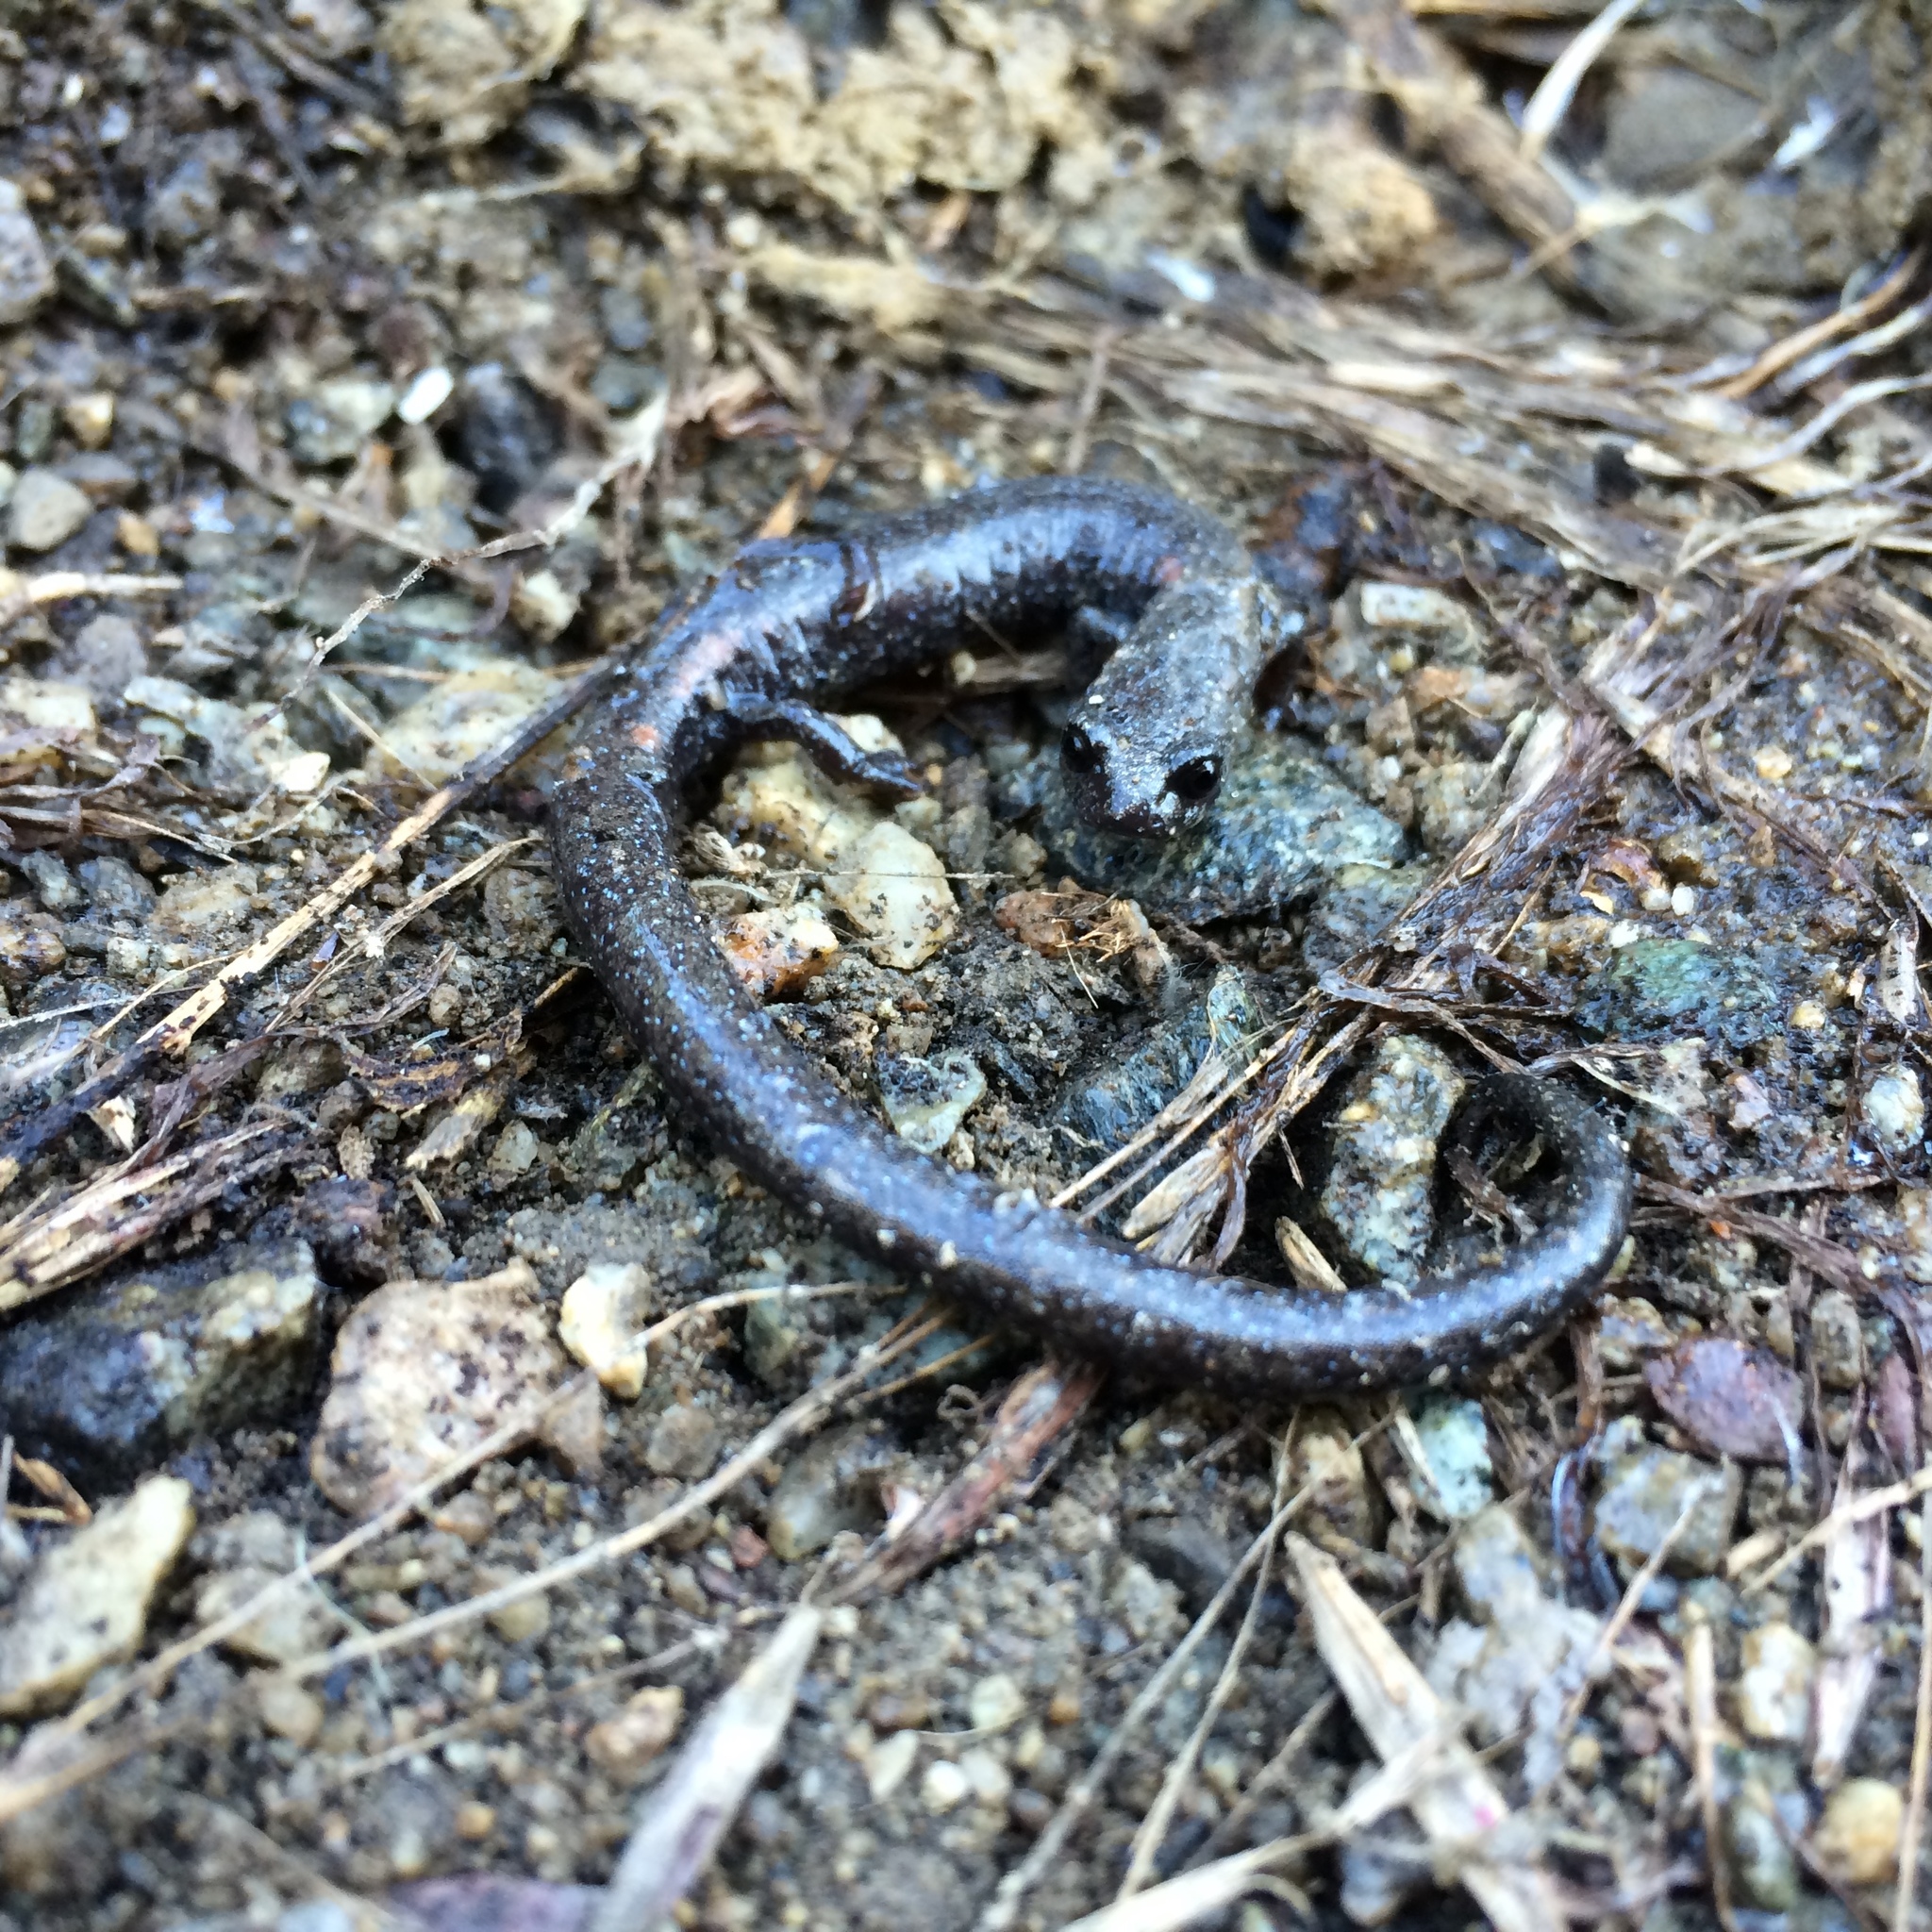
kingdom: Animalia
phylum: Chordata
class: Amphibia
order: Caudata
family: Plethodontidae
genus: Batrachoseps
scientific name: Batrachoseps gabrieli
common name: San gabriel mountains slender salamander
